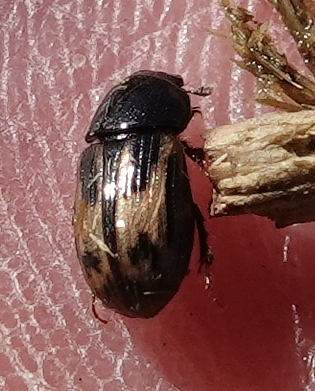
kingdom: Animalia
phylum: Arthropoda
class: Insecta
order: Coleoptera
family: Scarabaeidae
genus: Chilothorax
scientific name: Chilothorax distinctus
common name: Maculated dung beetle
